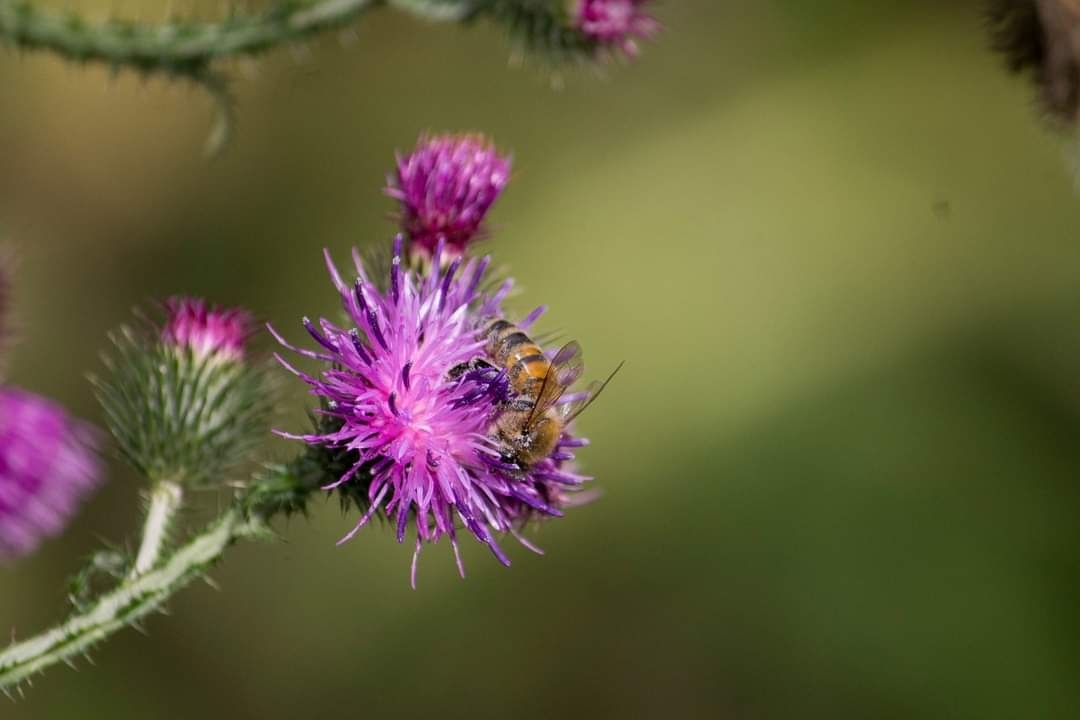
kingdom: Animalia
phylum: Arthropoda
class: Insecta
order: Hymenoptera
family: Apidae
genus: Apis
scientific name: Apis mellifera
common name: Honey bee
